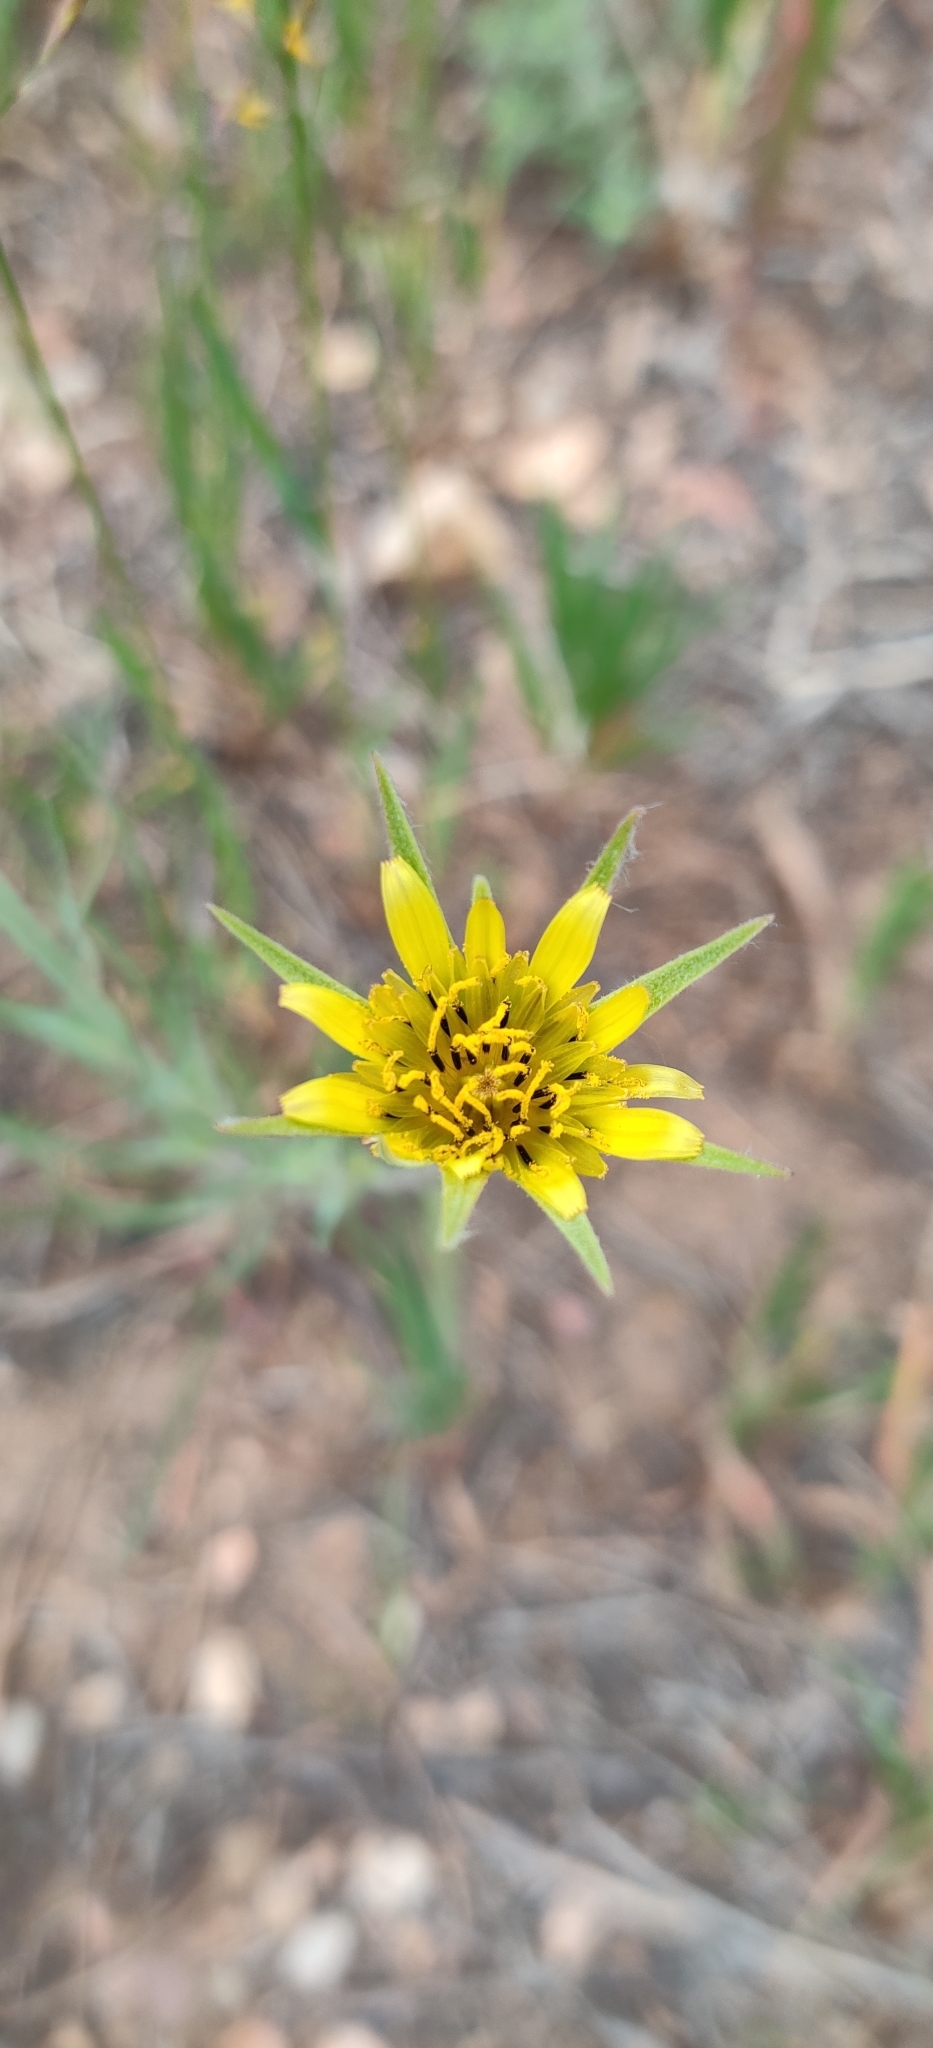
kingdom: Plantae
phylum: Tracheophyta
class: Magnoliopsida
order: Asterales
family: Asteraceae
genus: Tragopogon
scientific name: Tragopogon dubius
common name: Yellow salsify
